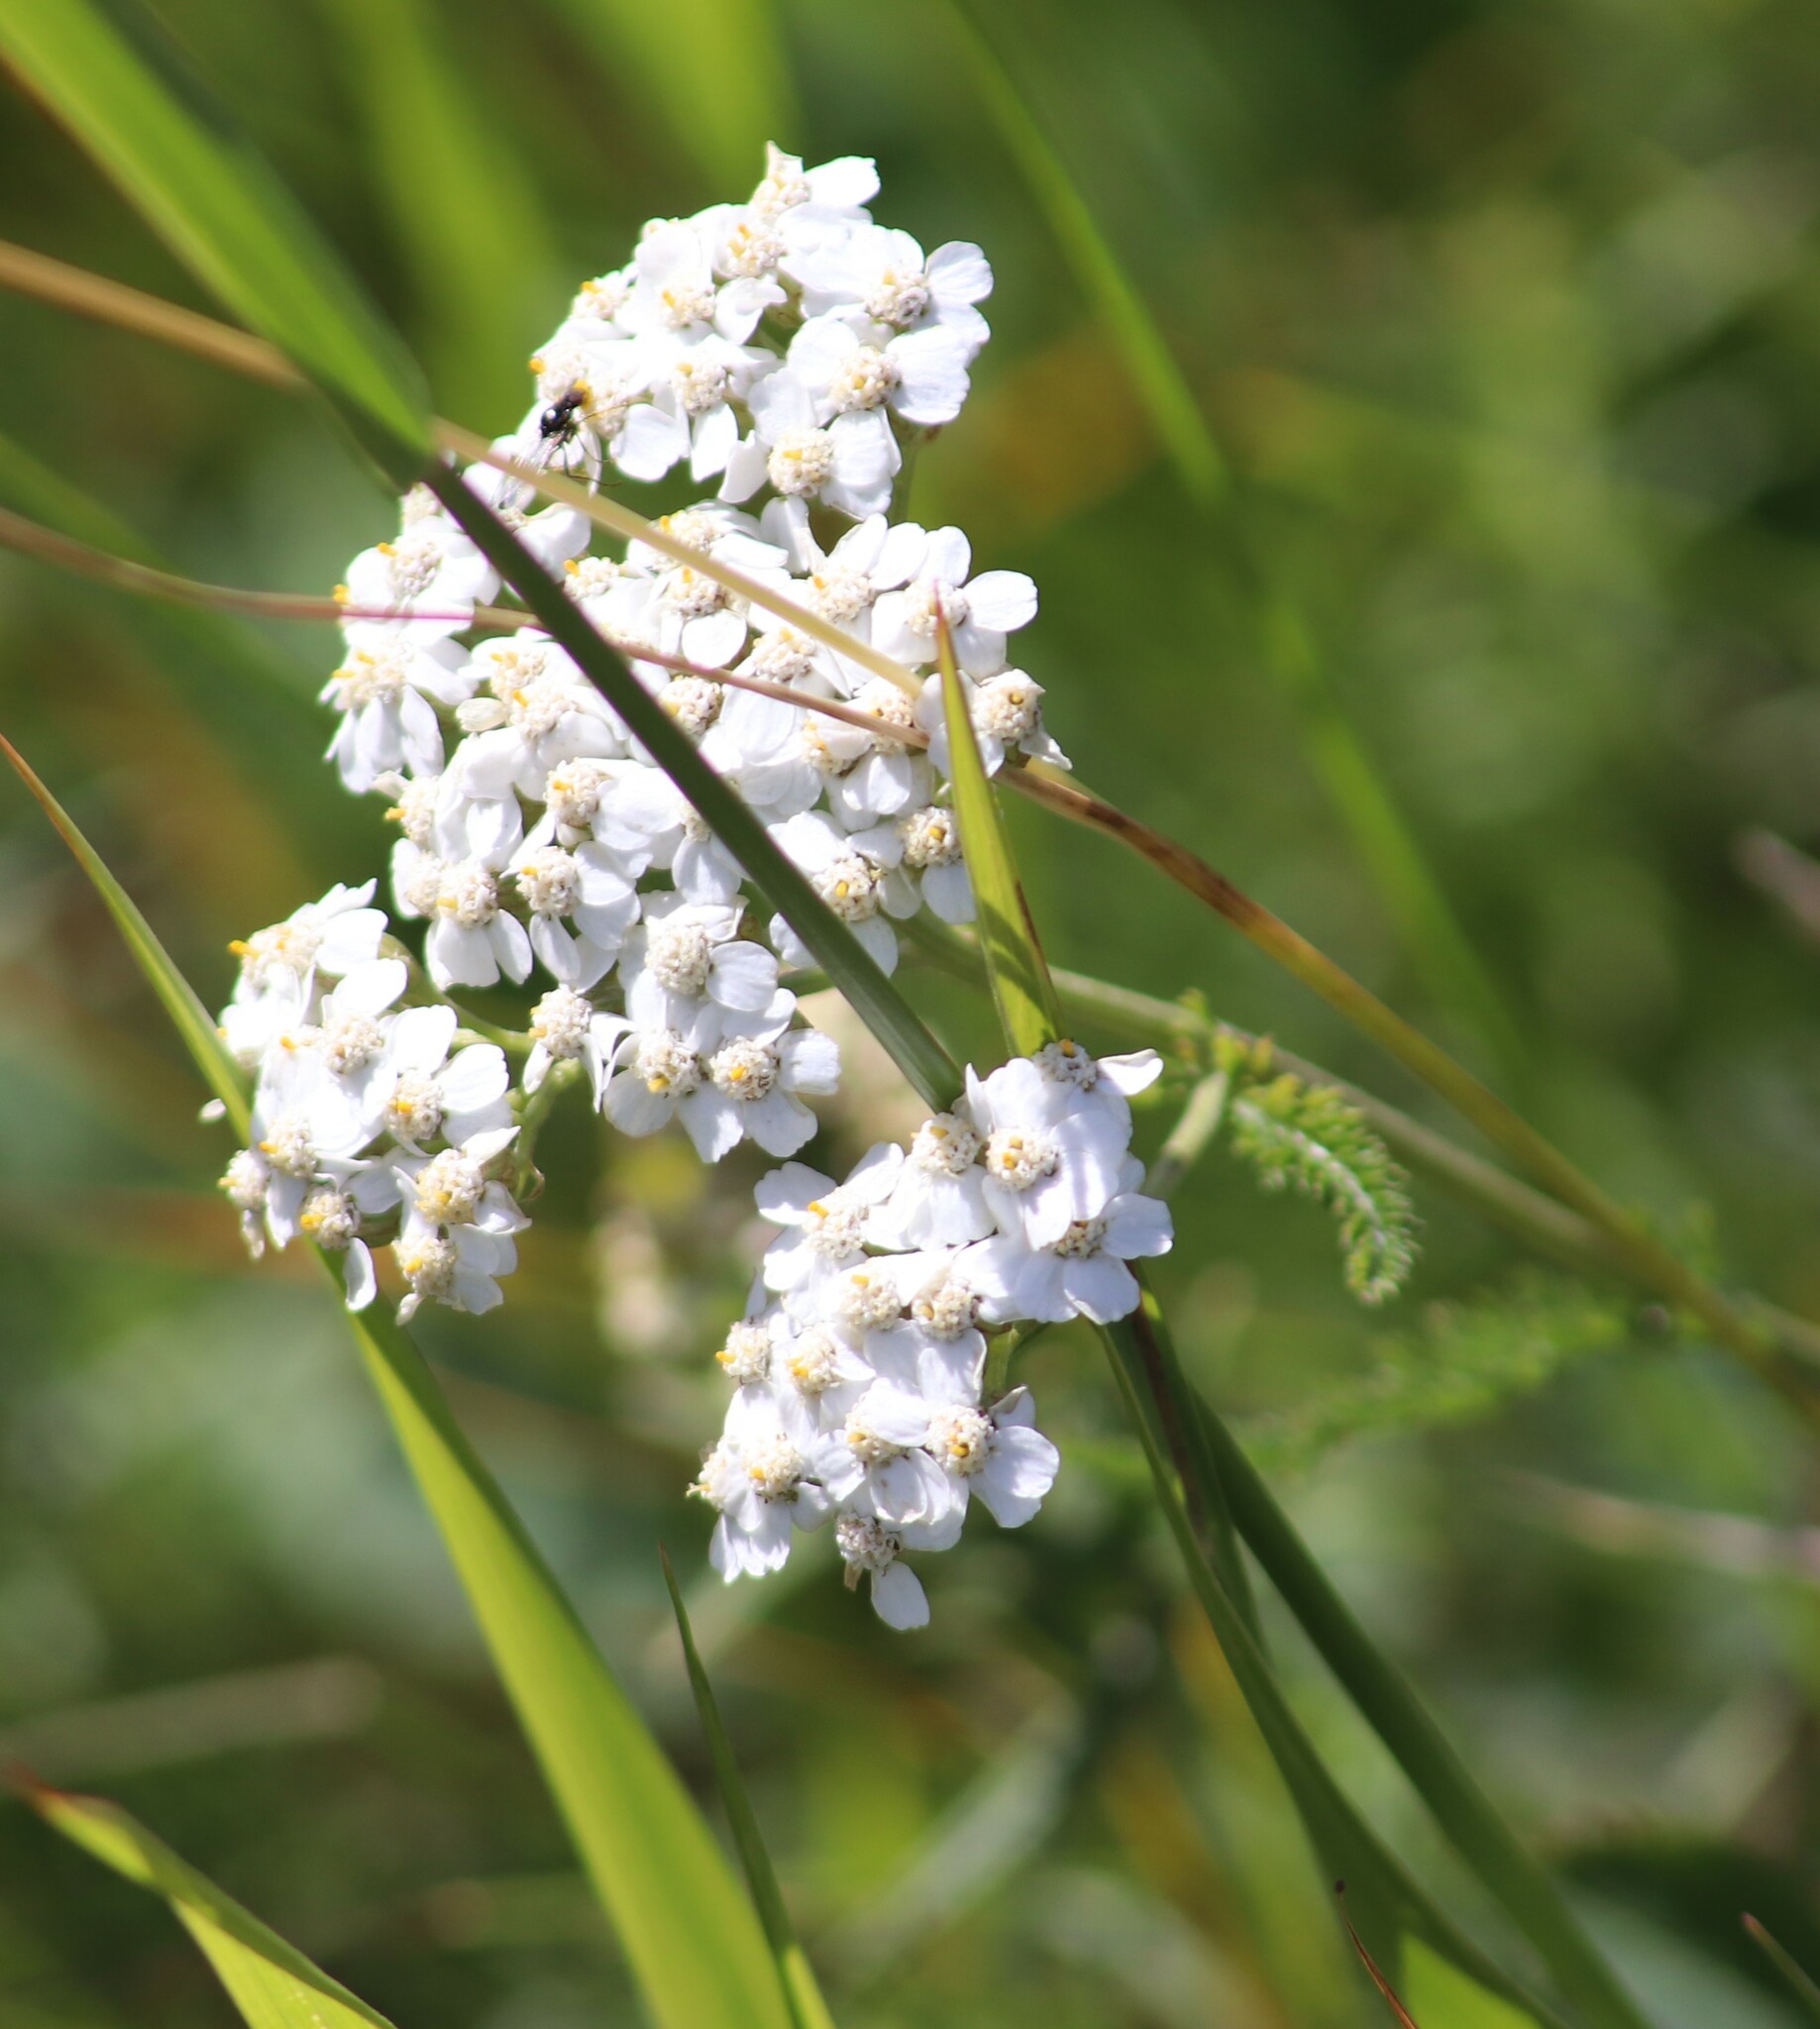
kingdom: Plantae
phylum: Tracheophyta
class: Magnoliopsida
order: Asterales
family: Asteraceae
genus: Achillea
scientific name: Achillea millefolium
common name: Yarrow
